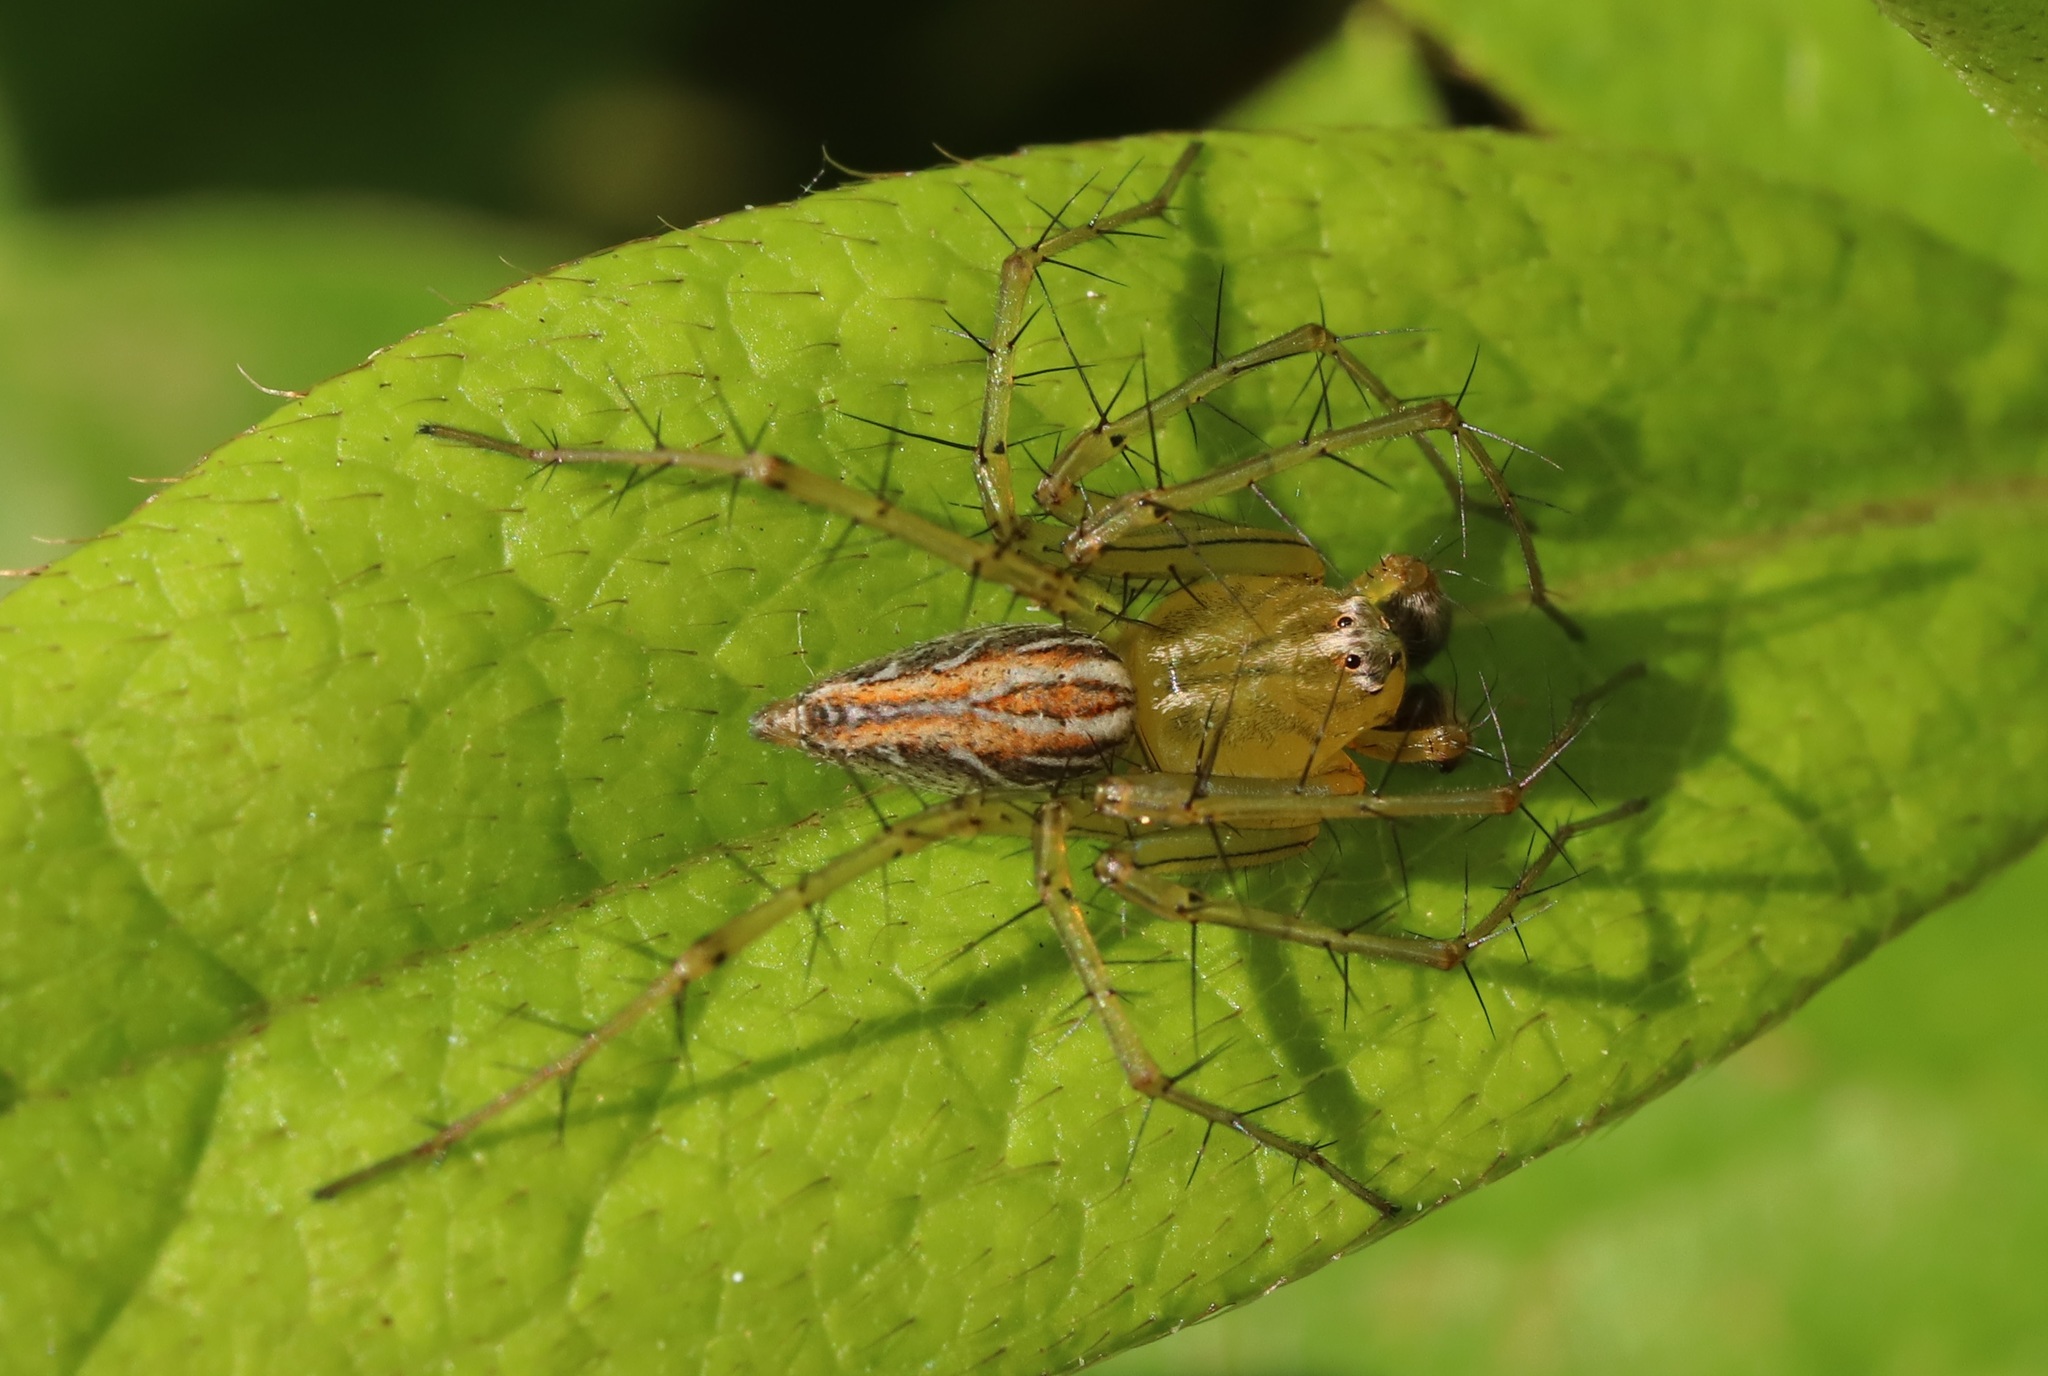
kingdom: Animalia
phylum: Arthropoda
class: Arachnida
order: Araneae
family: Oxyopidae
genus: Oxyopes
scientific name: Oxyopes sertatus
